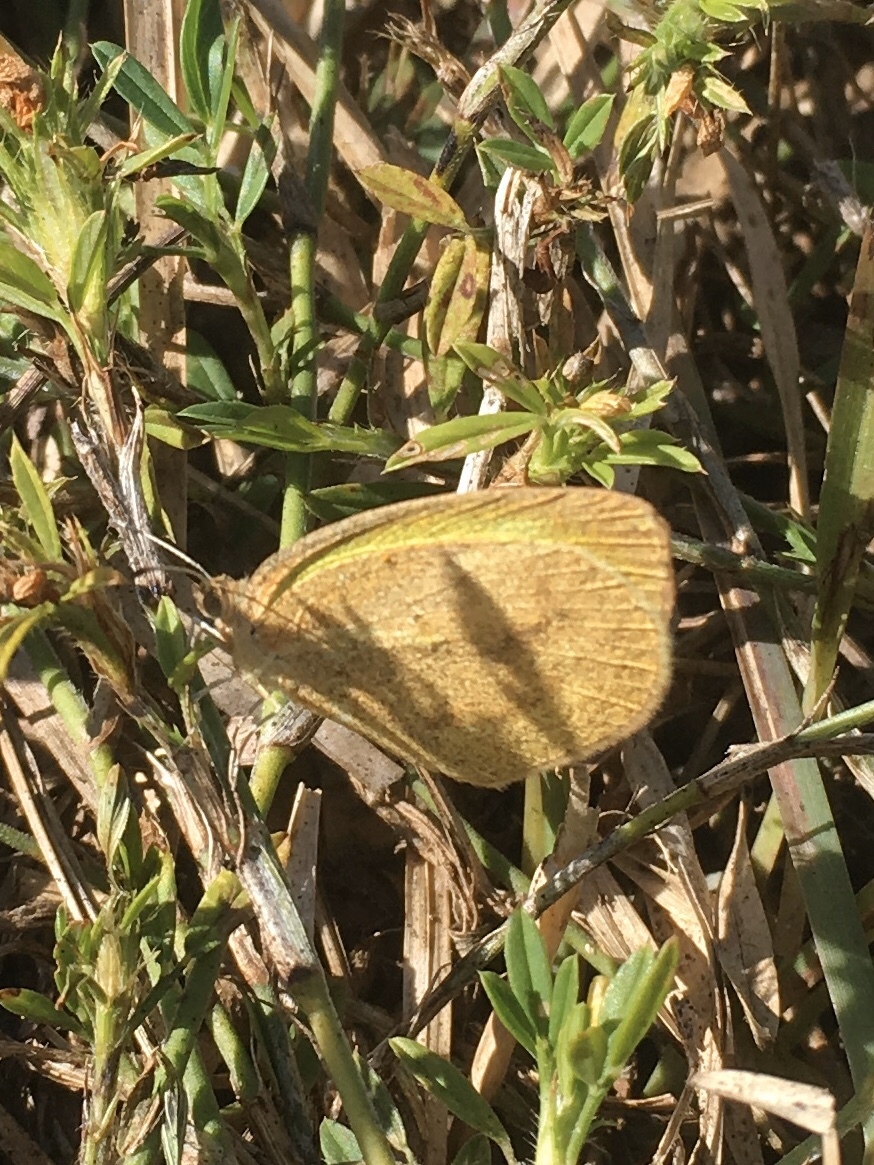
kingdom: Animalia
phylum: Arthropoda
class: Insecta
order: Lepidoptera
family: Pieridae
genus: Eurema
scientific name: Eurema daira
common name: Barred sulphur
